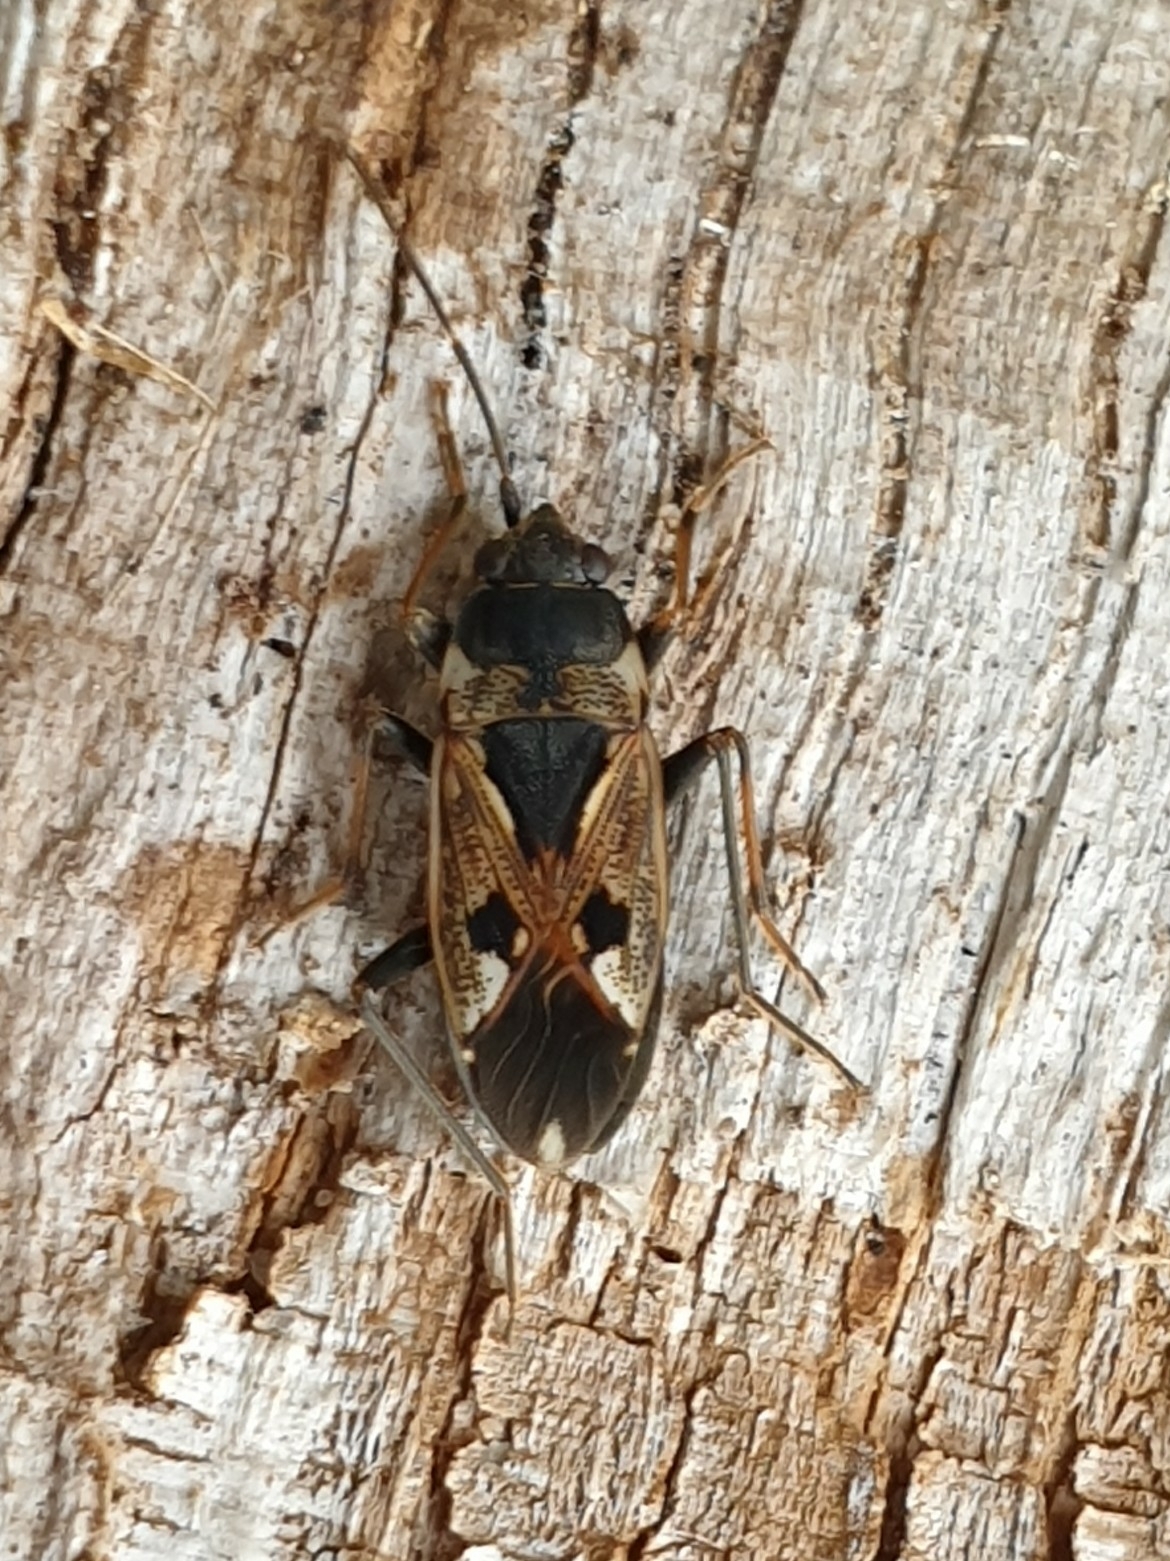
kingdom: Animalia
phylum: Arthropoda
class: Insecta
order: Hemiptera
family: Rhyparochromidae
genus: Rhyparochromus
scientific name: Rhyparochromus vulgaris
